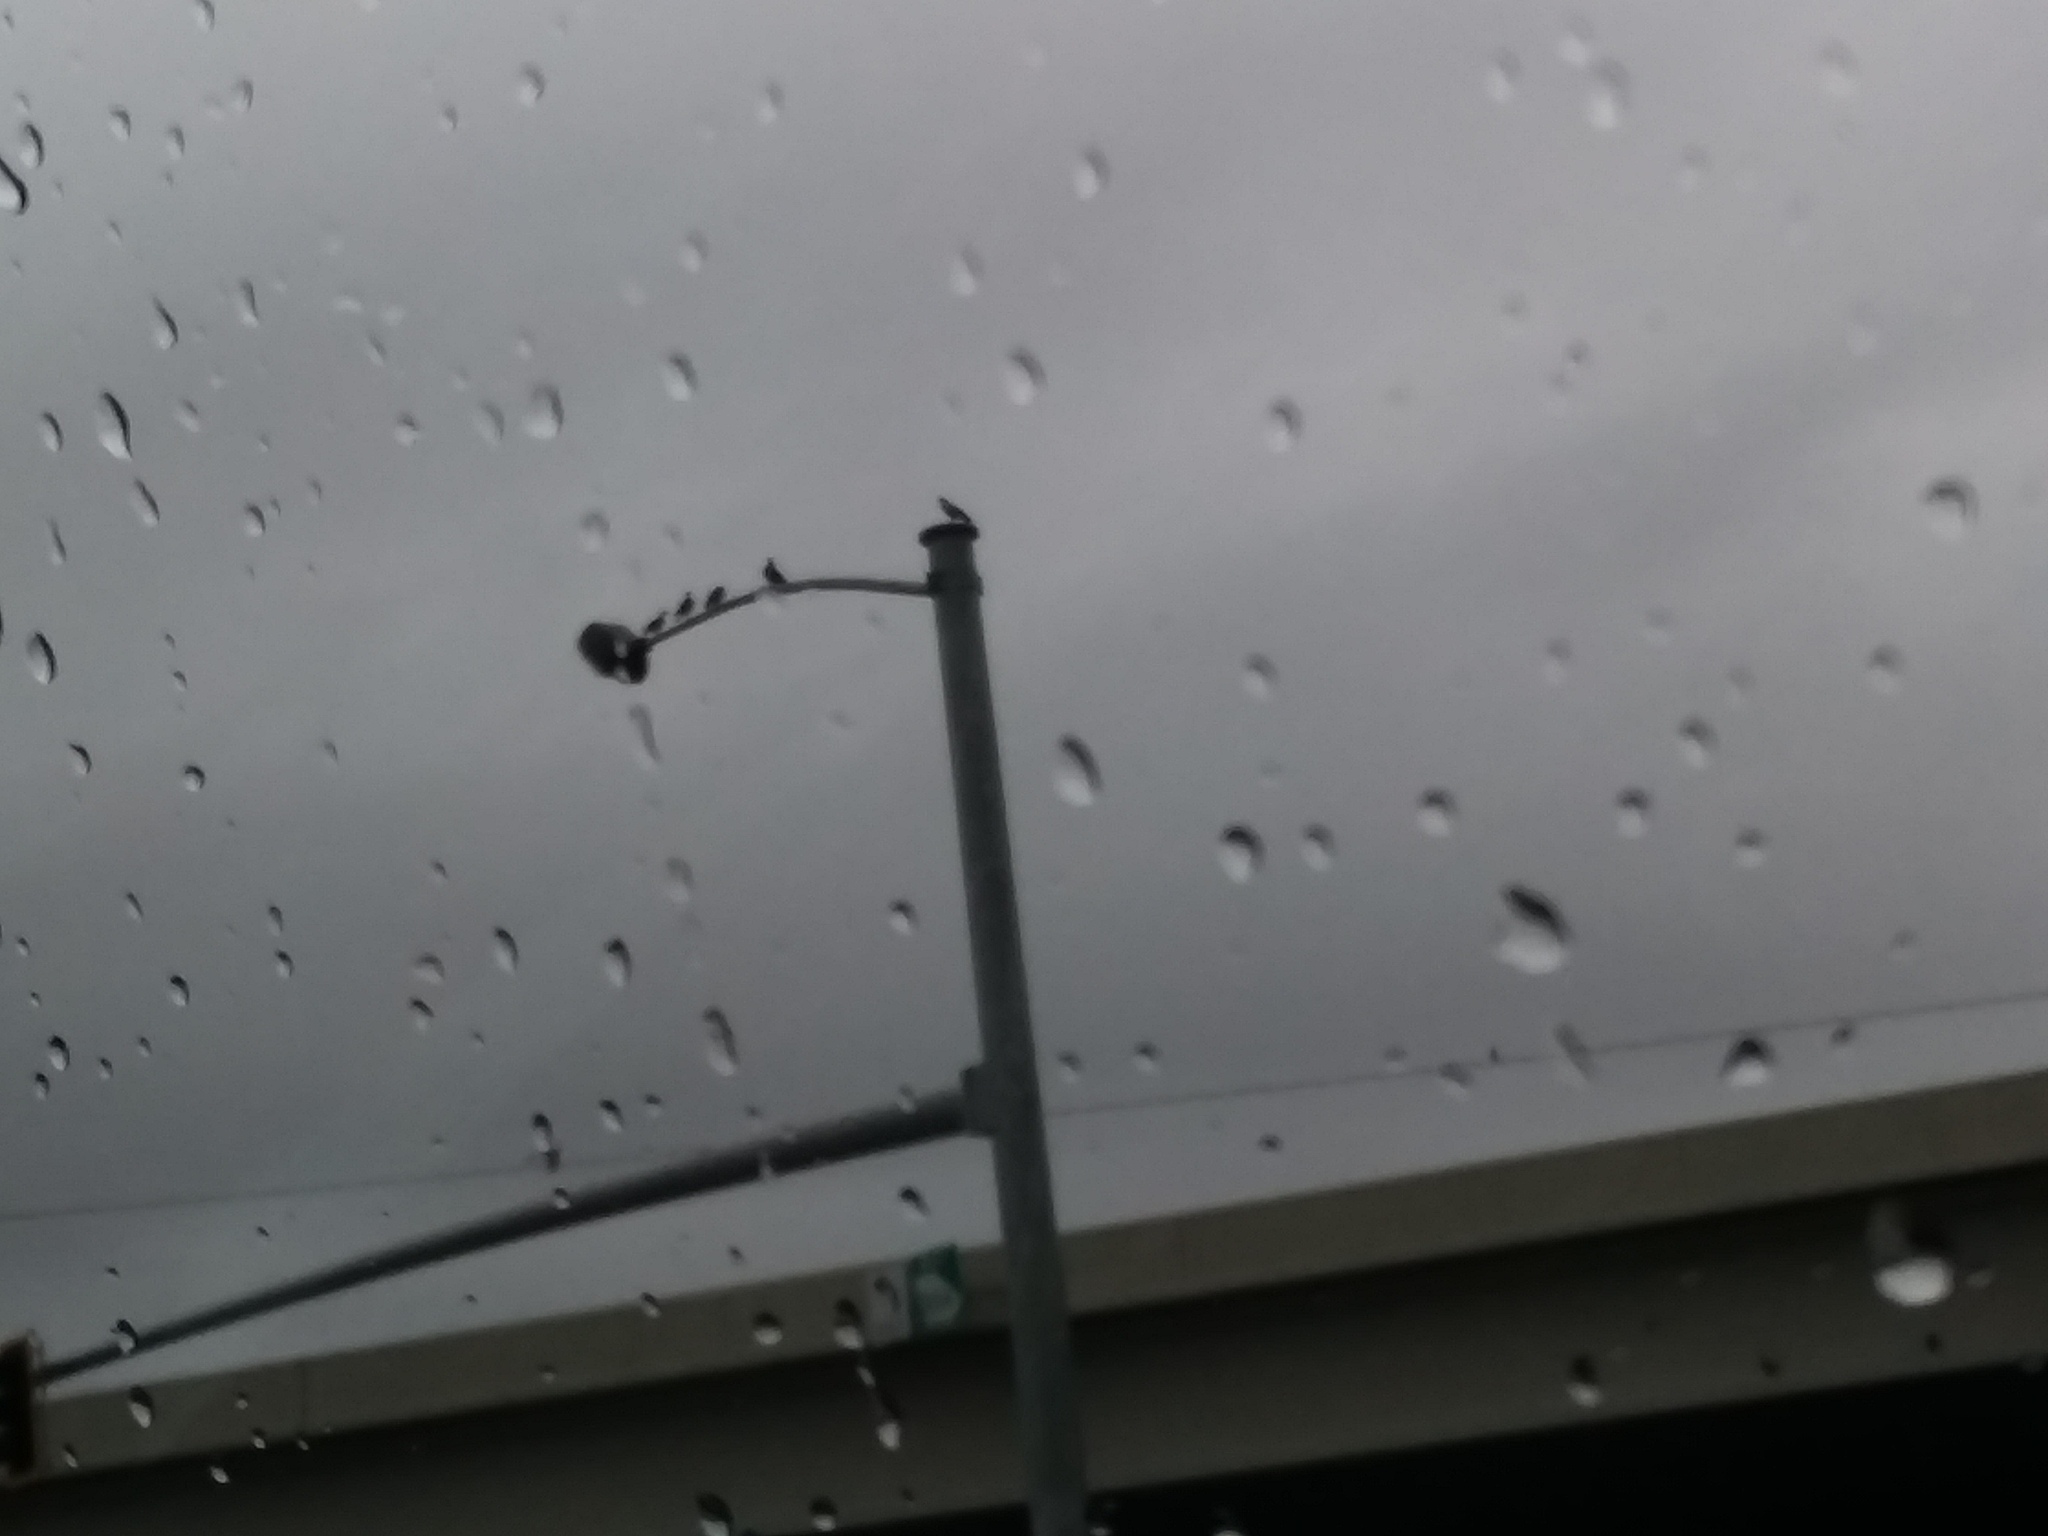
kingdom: Animalia
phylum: Chordata
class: Aves
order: Columbiformes
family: Columbidae
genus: Columba
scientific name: Columba livia
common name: Rock pigeon
